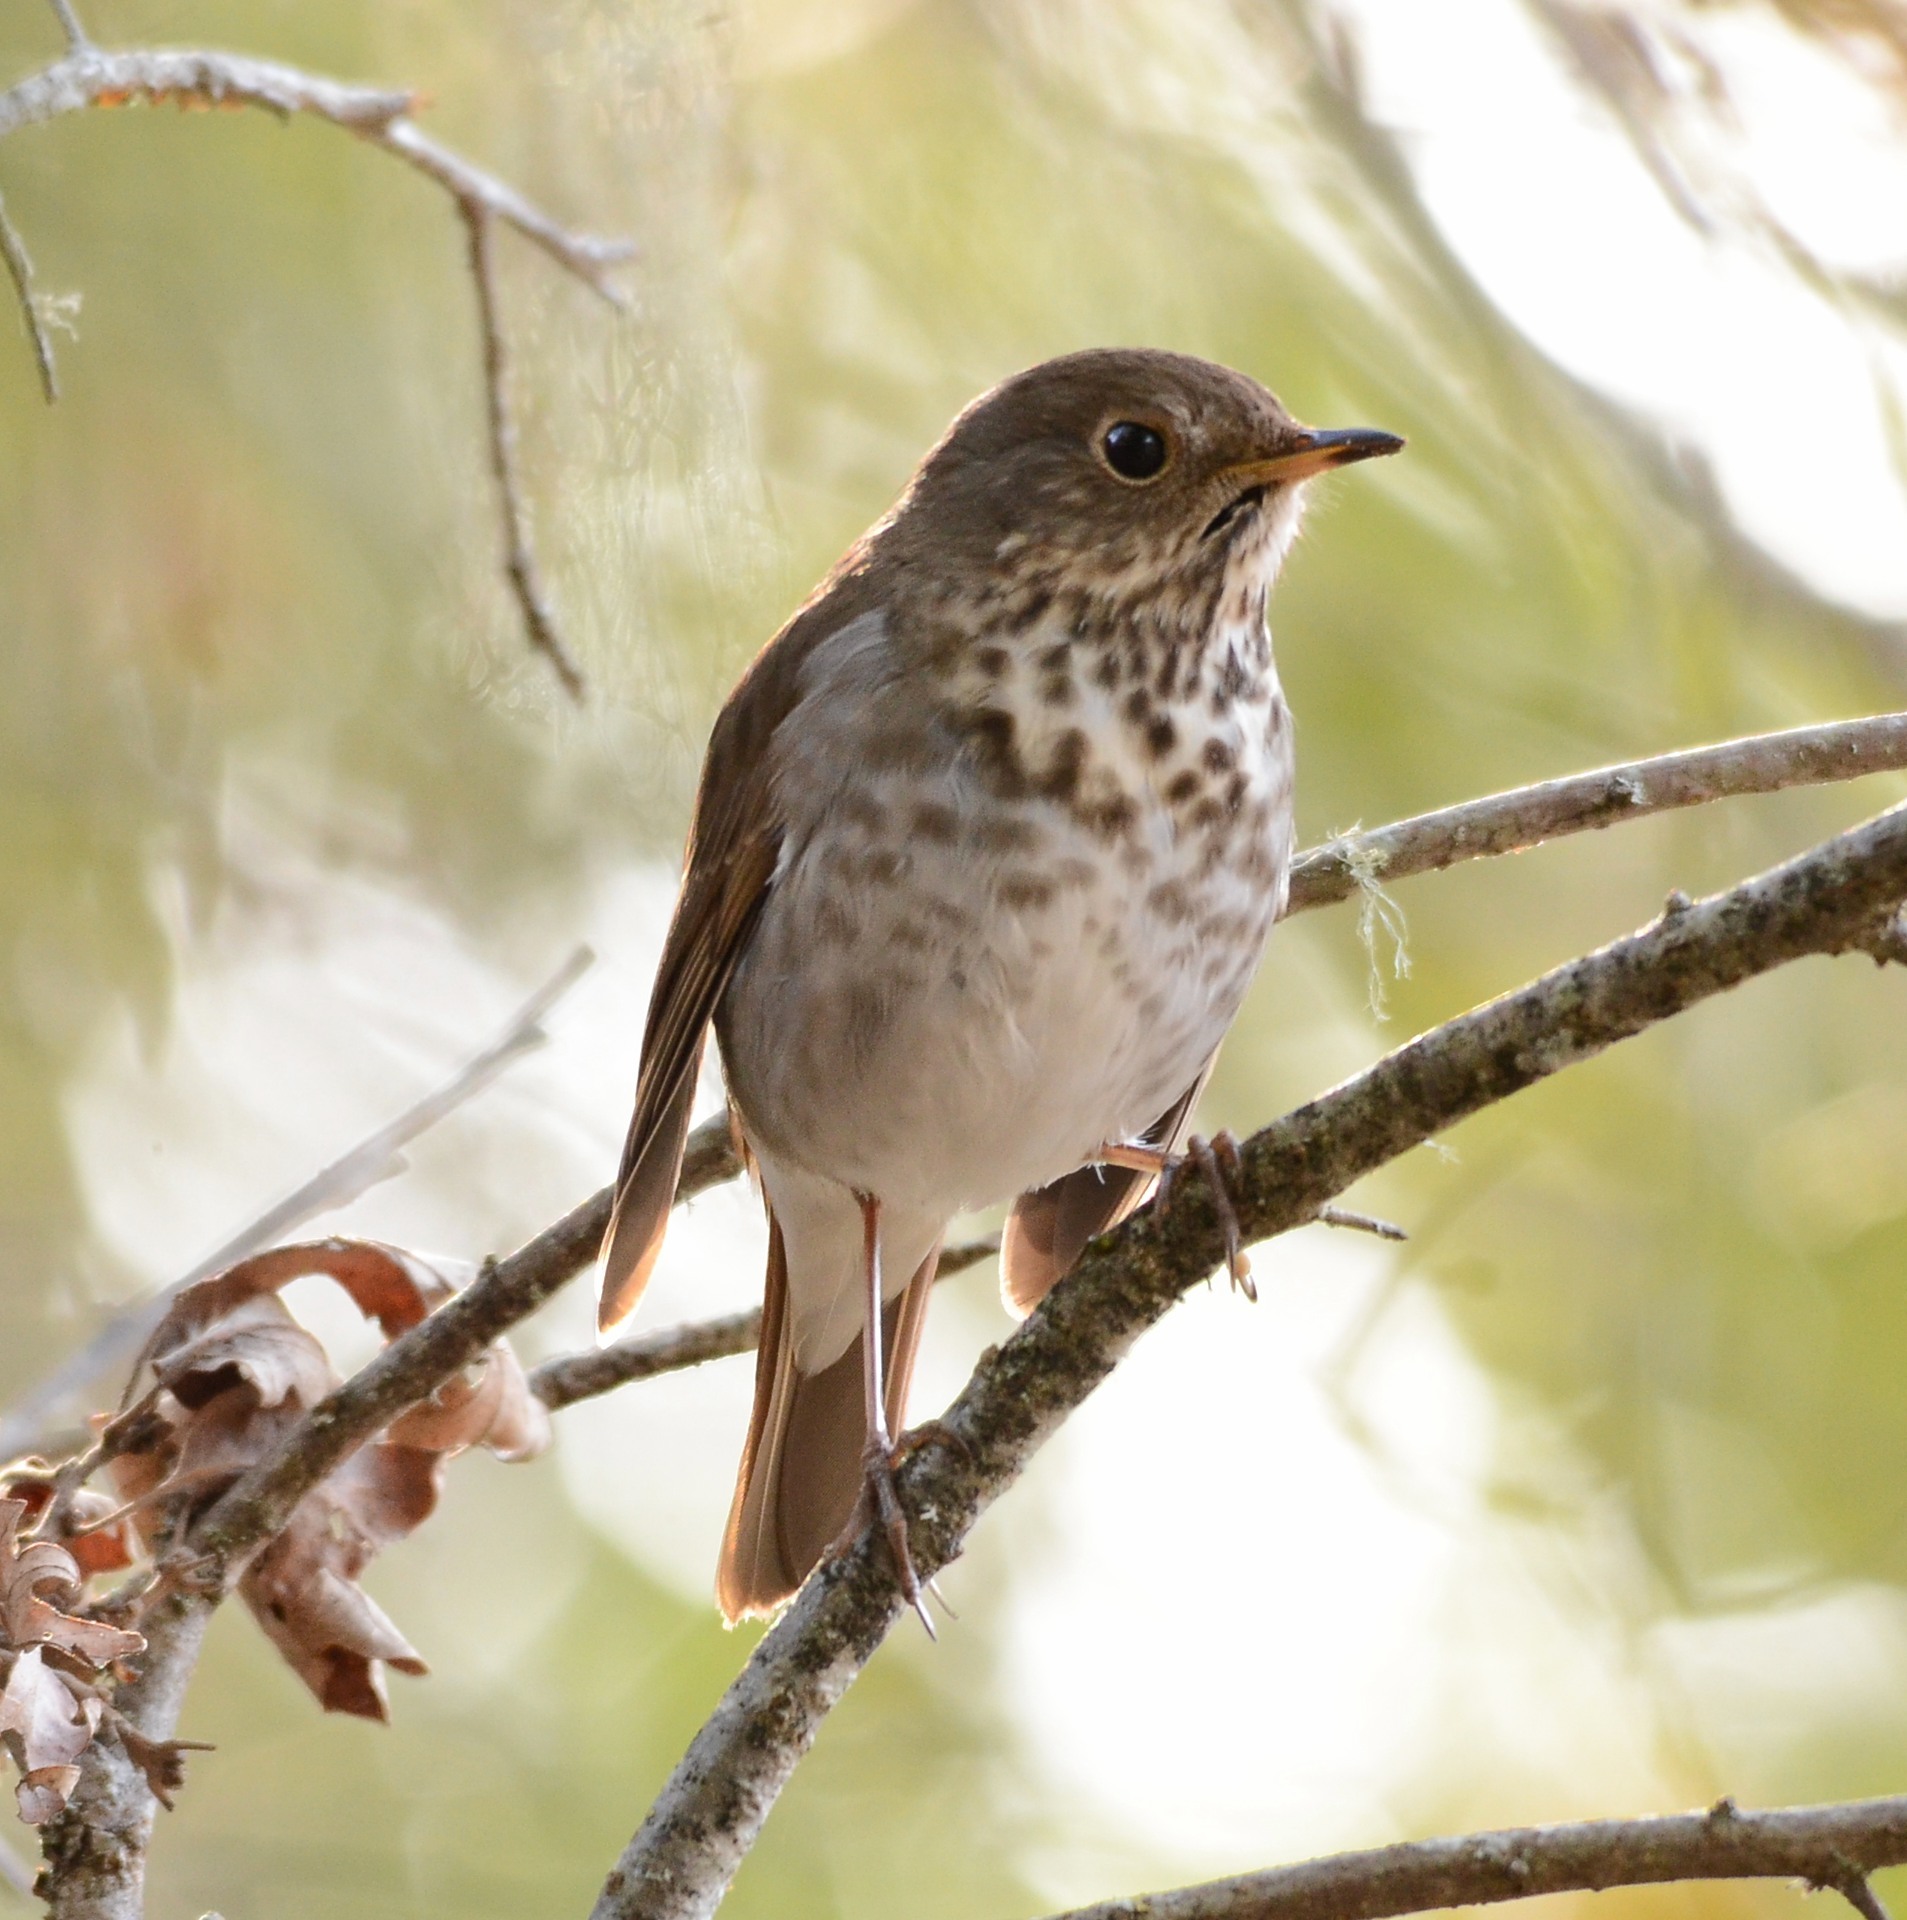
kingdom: Animalia
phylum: Chordata
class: Aves
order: Passeriformes
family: Turdidae
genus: Catharus
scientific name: Catharus guttatus
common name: Hermit thrush
